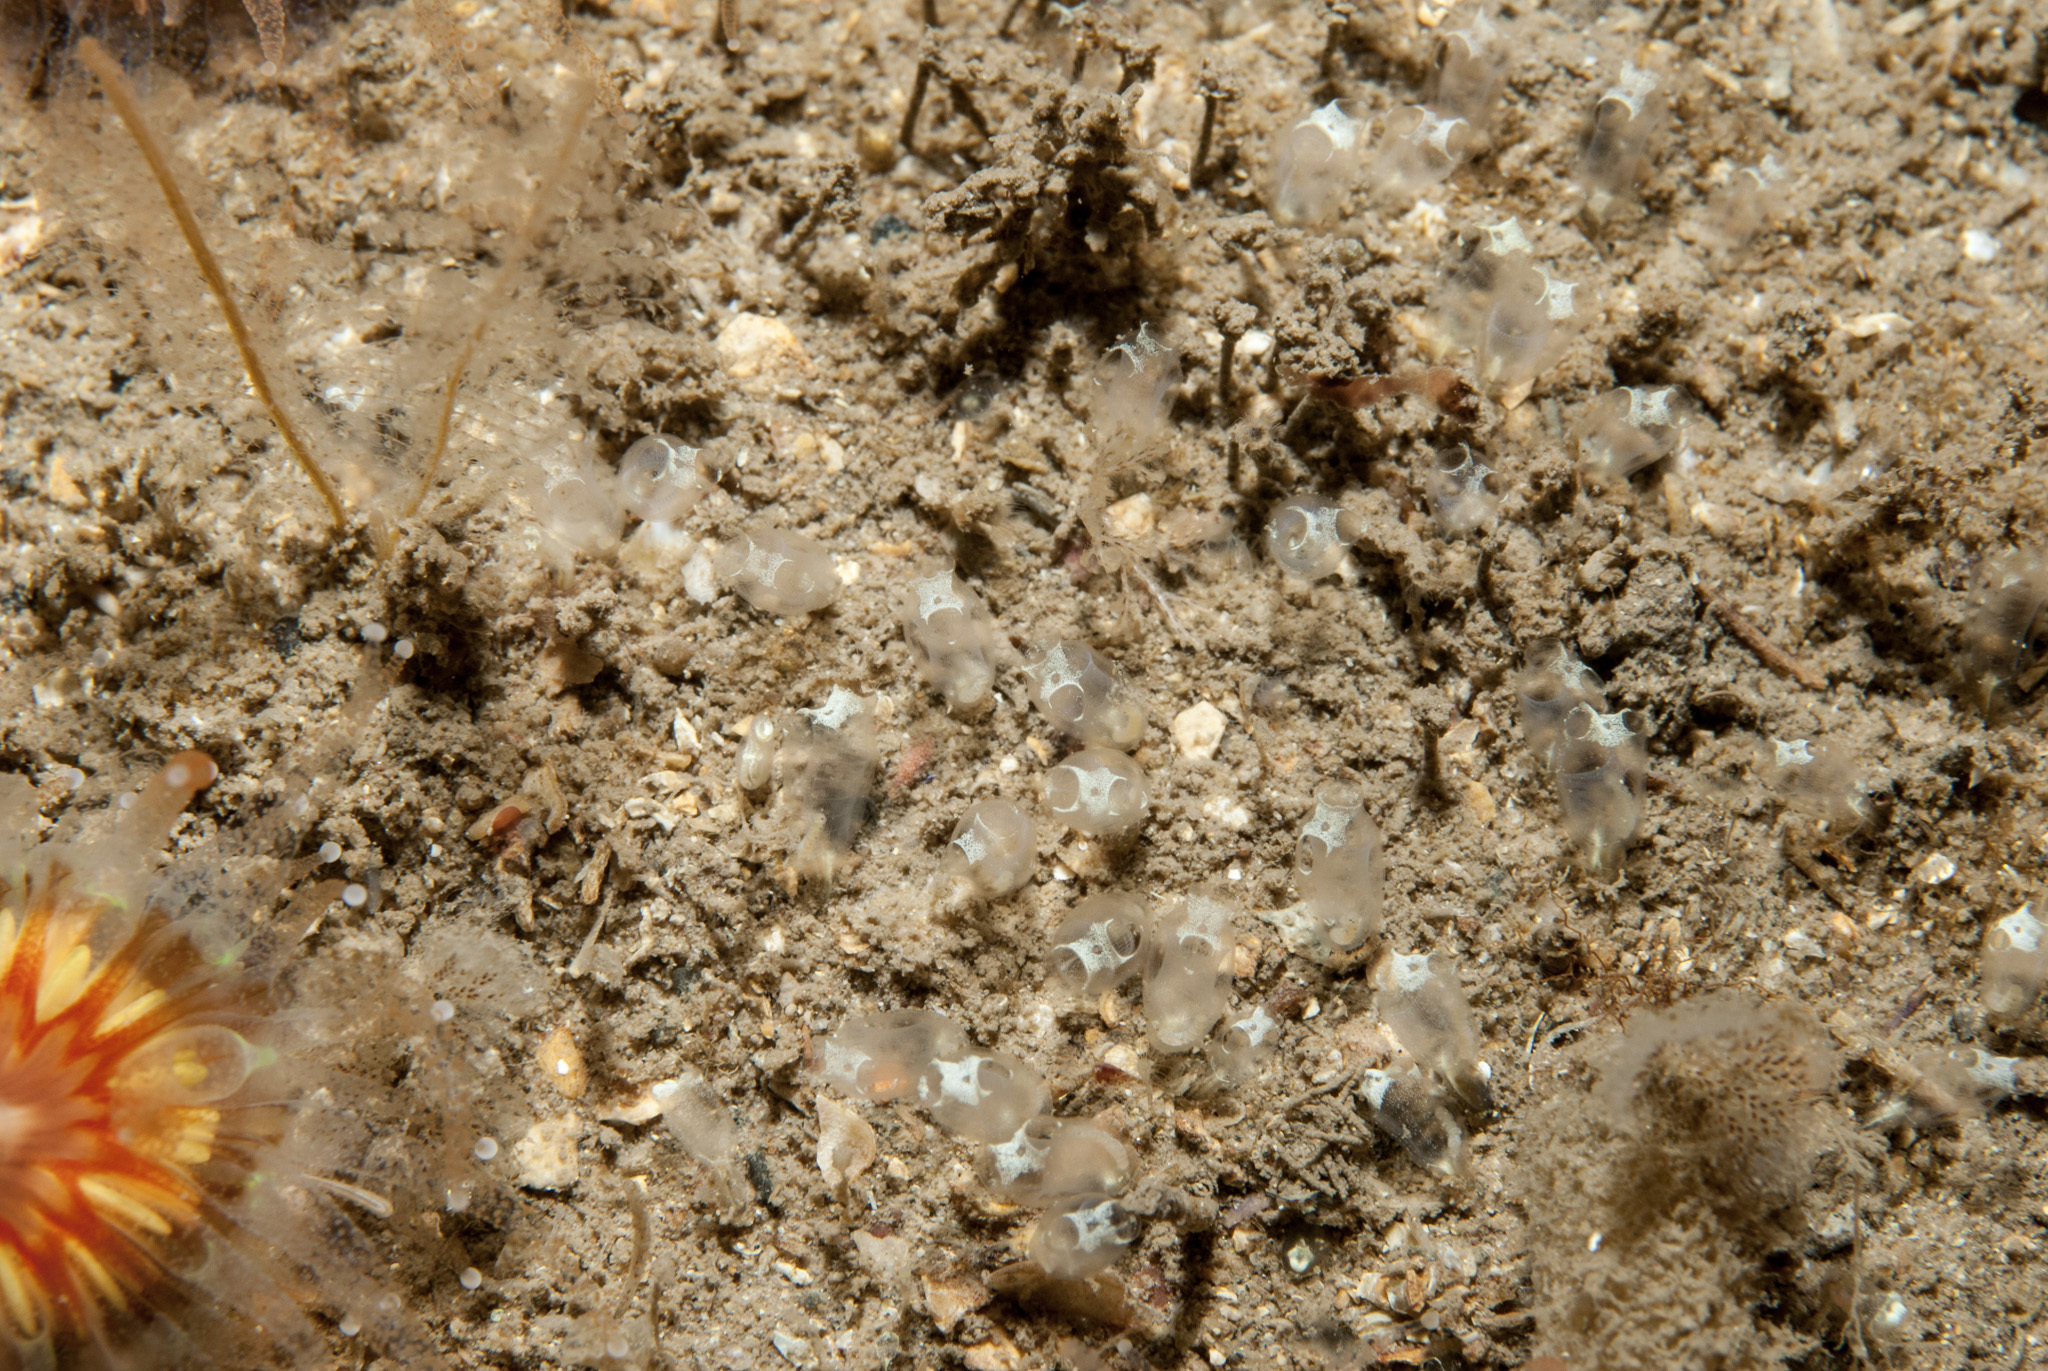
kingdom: Animalia
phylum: Chordata
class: Ascidiacea
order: Aplousobranchia
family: Clavelinidae
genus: Pycnoclavella
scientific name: Pycnoclavella stolonialis
